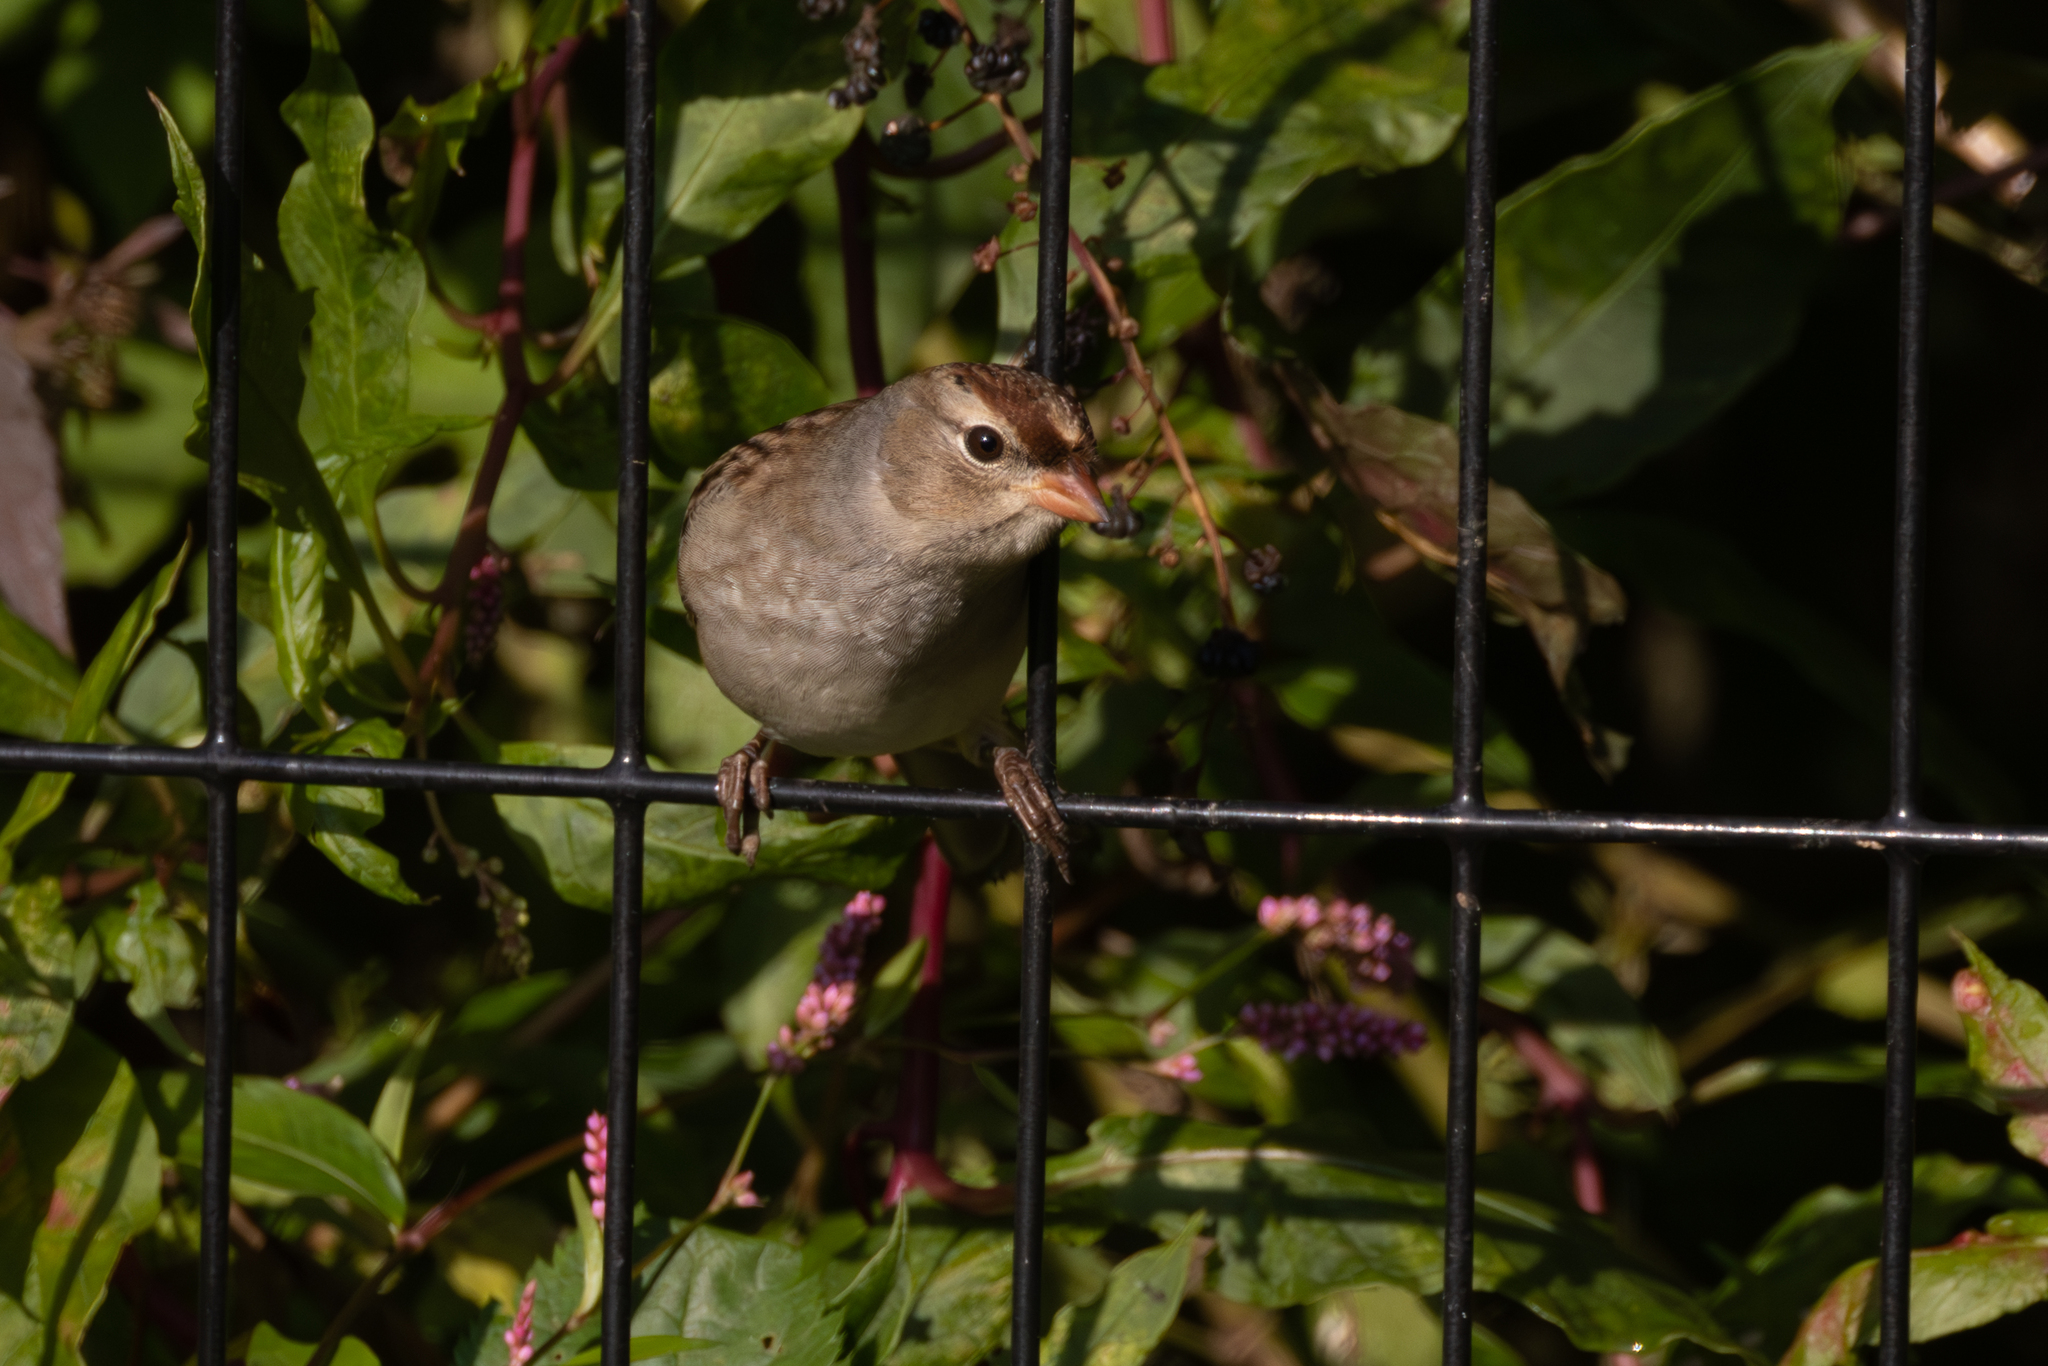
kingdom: Animalia
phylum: Chordata
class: Aves
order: Passeriformes
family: Passerellidae
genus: Zonotrichia
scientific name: Zonotrichia leucophrys
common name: White-crowned sparrow
